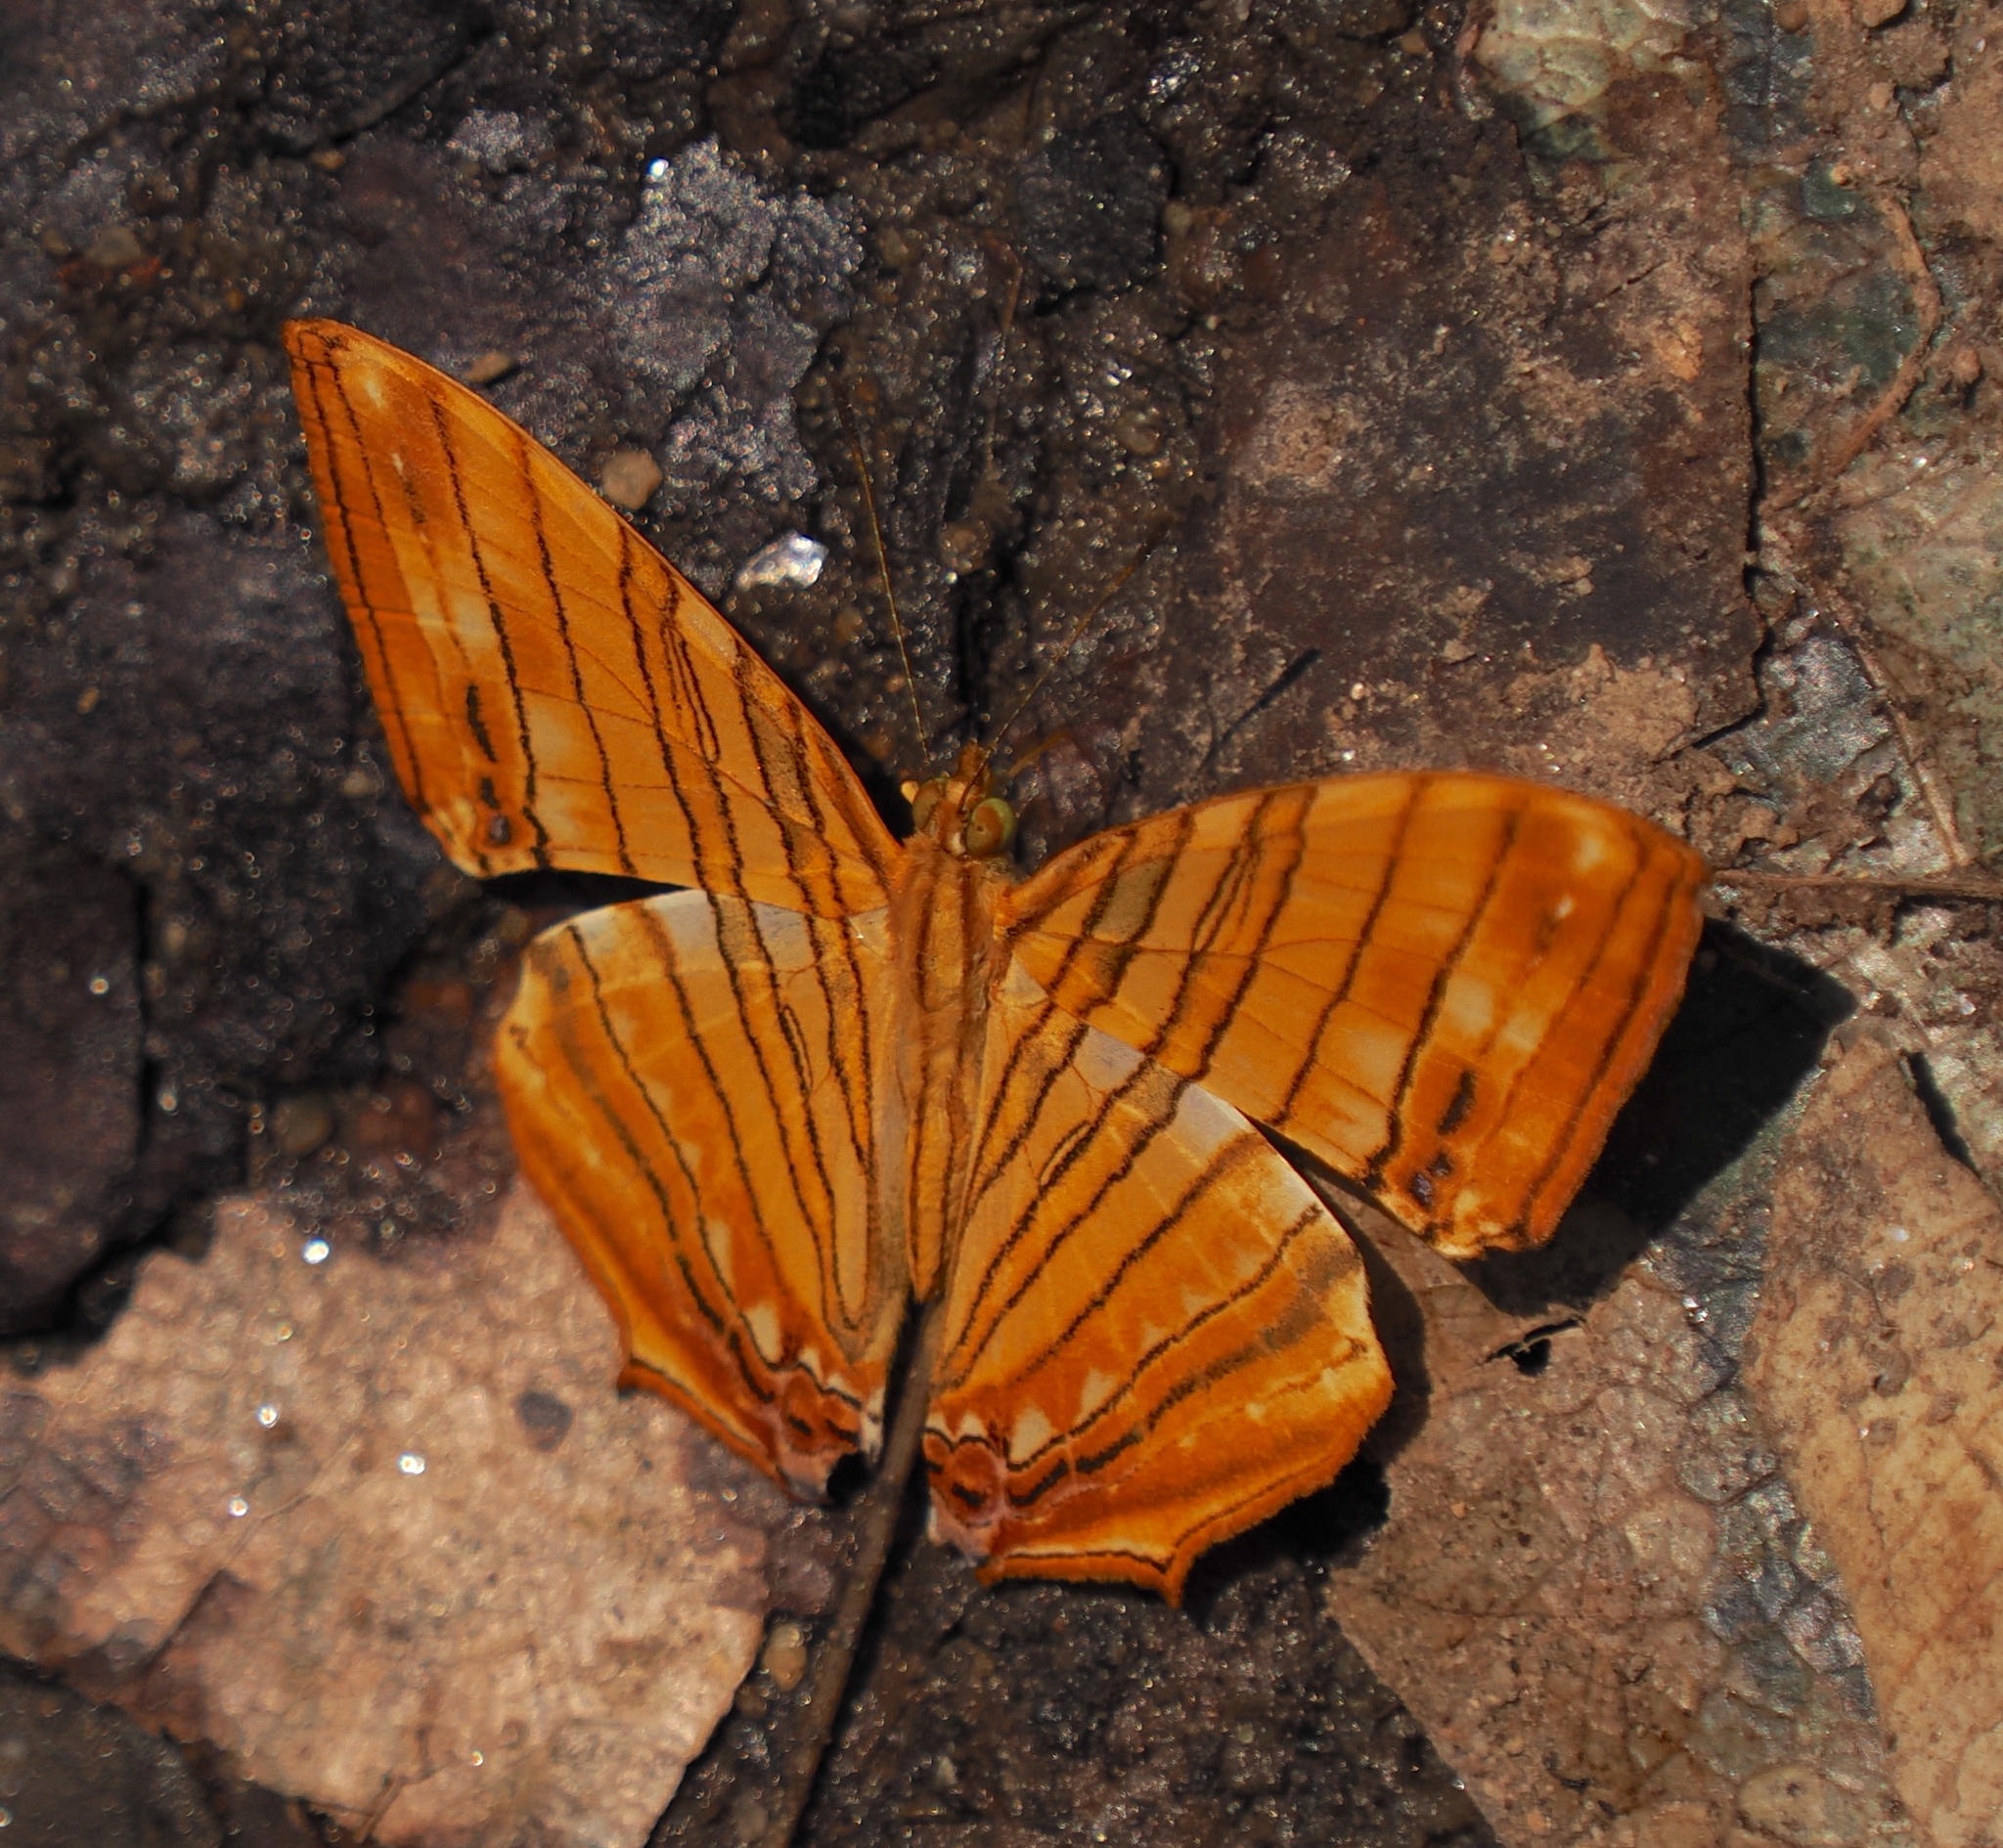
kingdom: Animalia
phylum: Arthropoda
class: Insecta
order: Lepidoptera
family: Nymphalidae
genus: Chersonesia
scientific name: Chersonesia risa
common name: Common maplet
